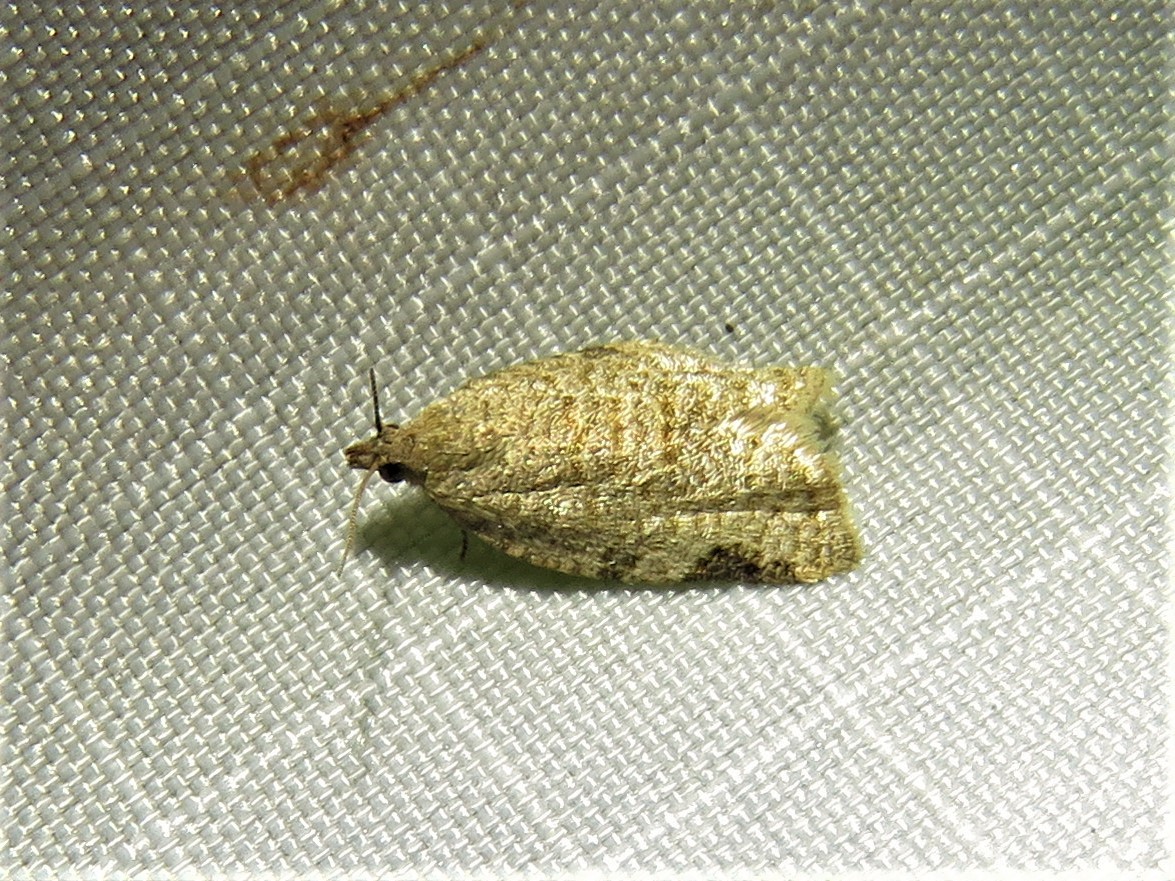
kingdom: Animalia
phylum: Arthropoda
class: Insecta
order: Lepidoptera
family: Tortricidae
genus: Clepsis
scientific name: Clepsis virescana
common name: Greenish apple moth
